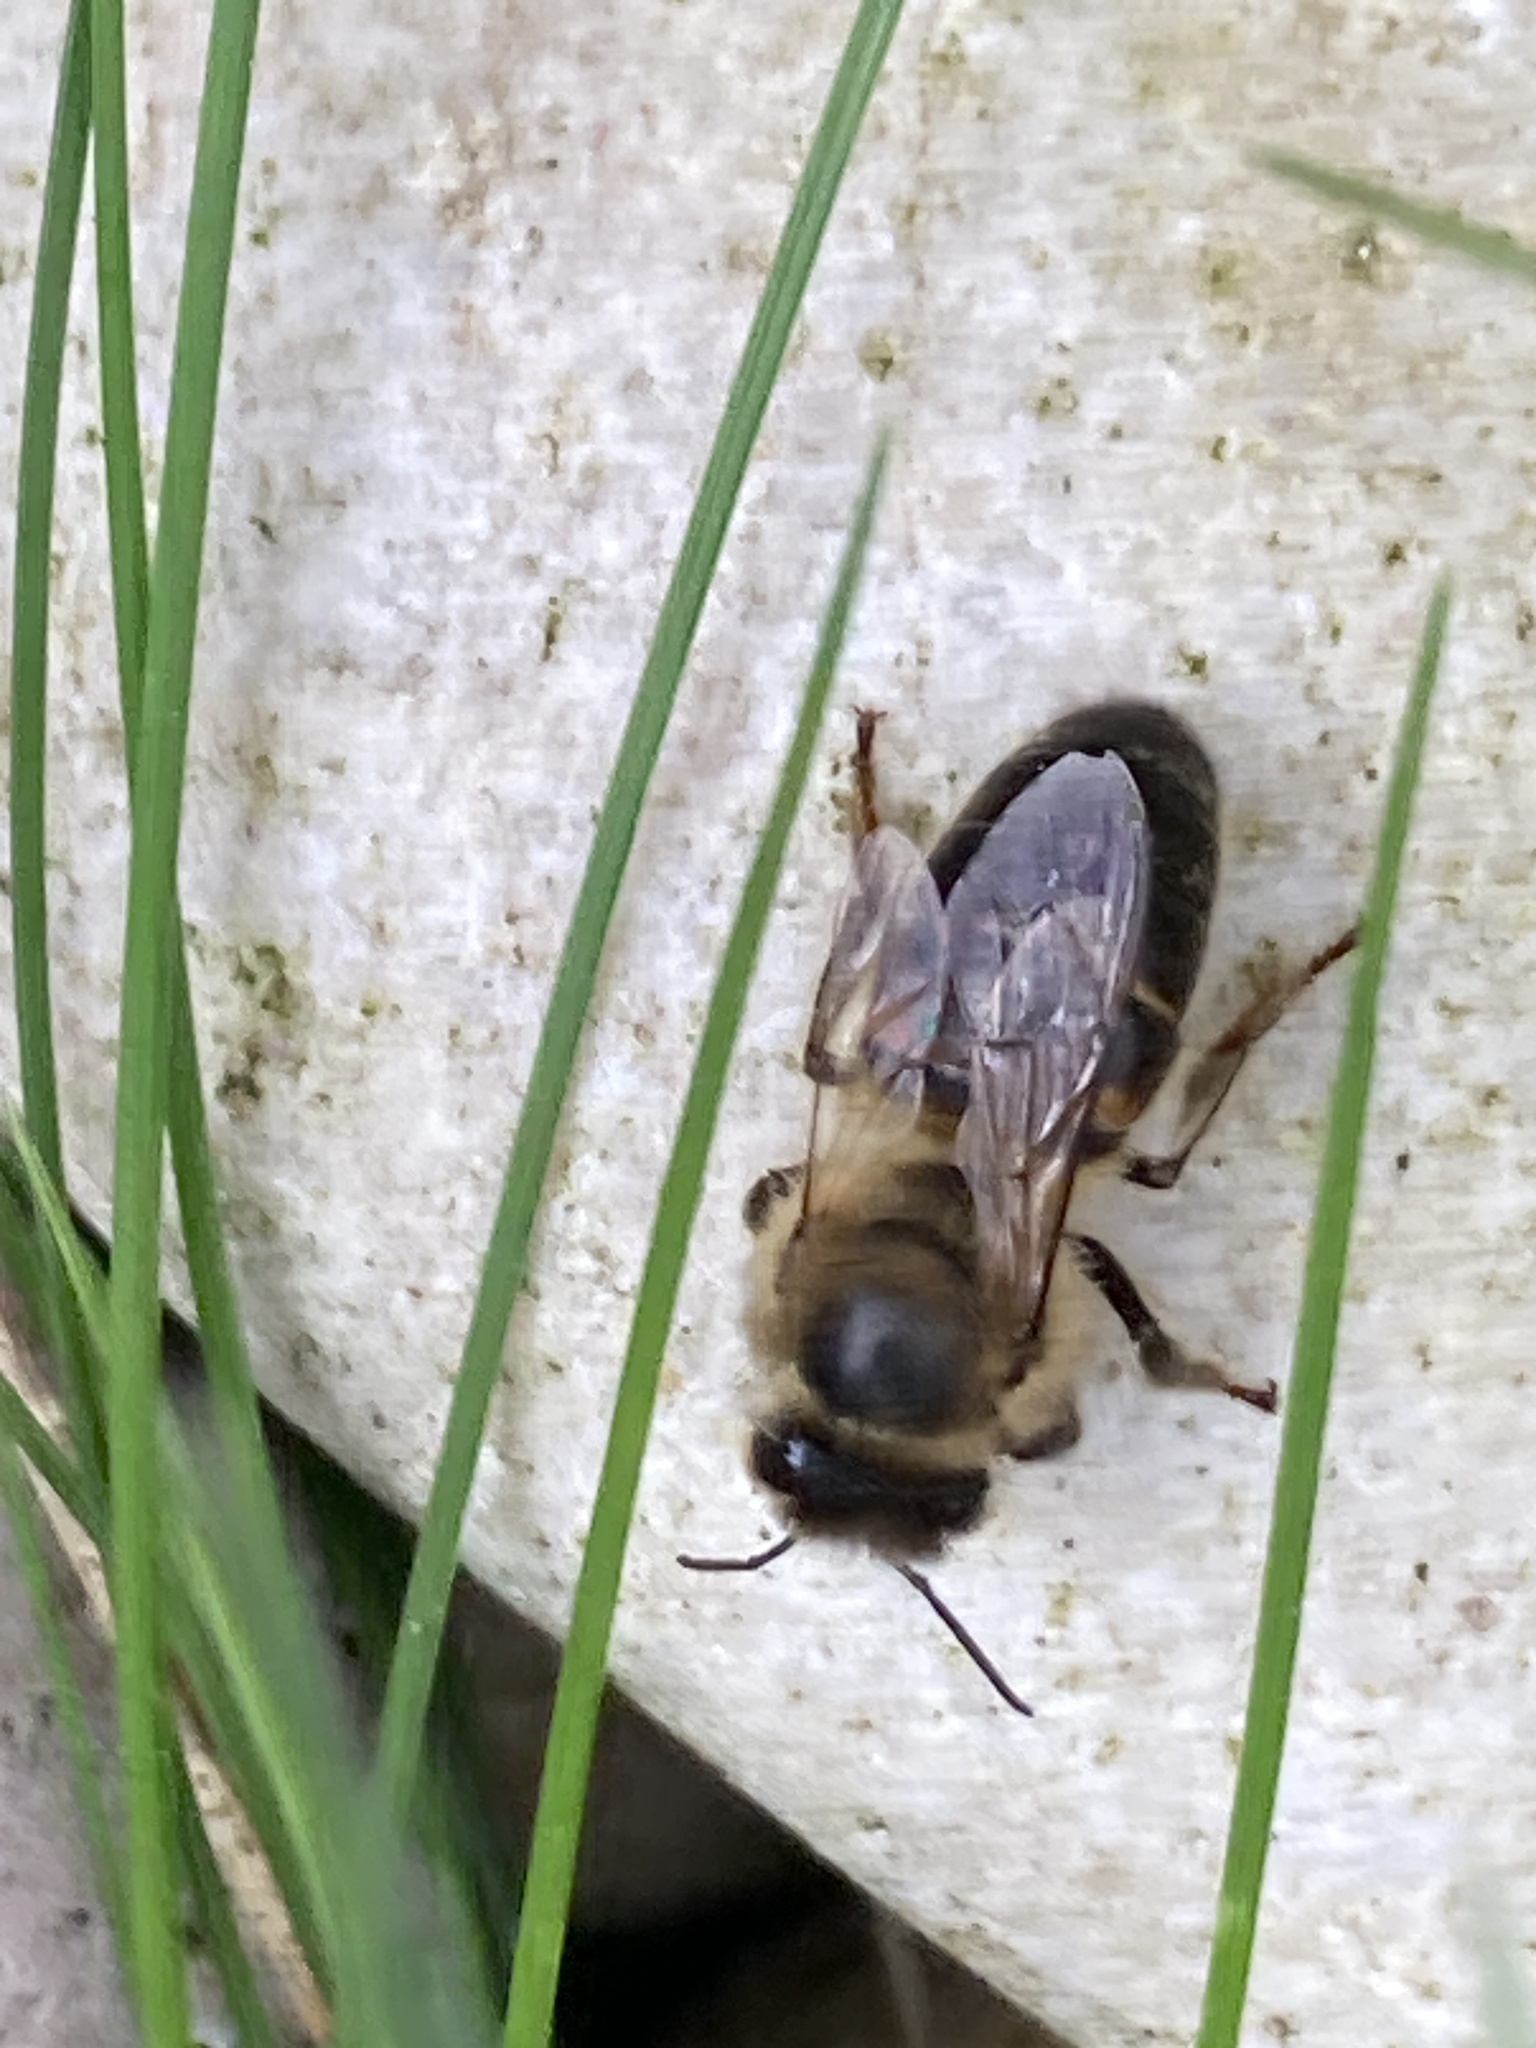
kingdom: Animalia
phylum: Arthropoda
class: Insecta
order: Hymenoptera
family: Apidae
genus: Apis
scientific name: Apis mellifera
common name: Honey bee
